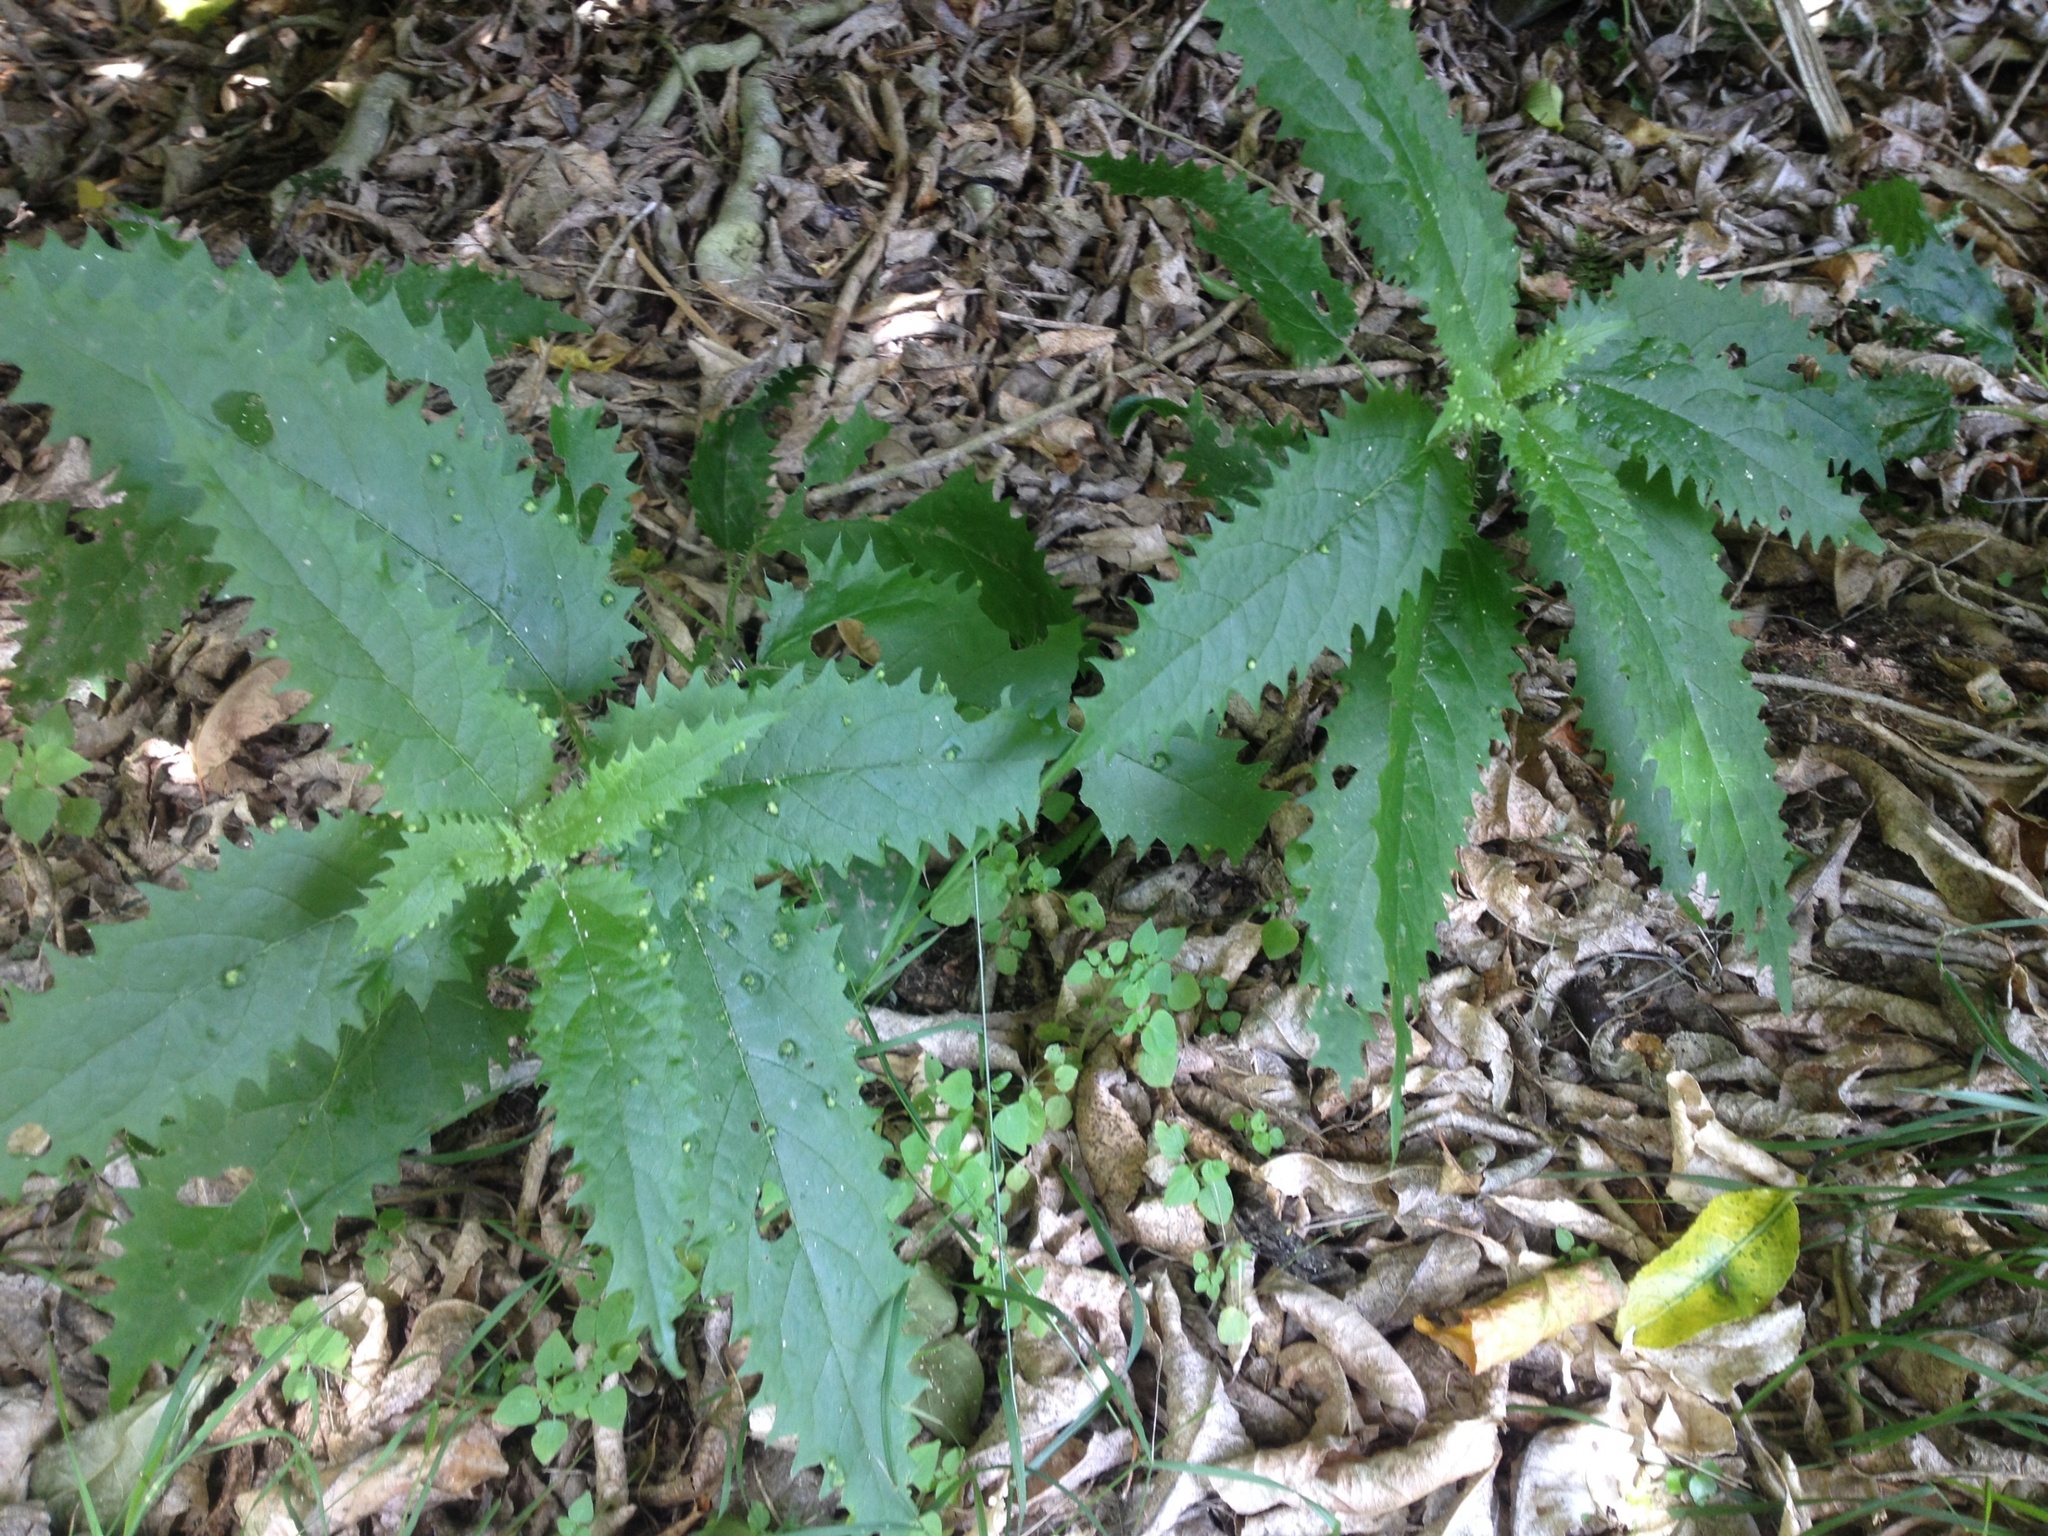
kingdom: Plantae
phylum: Tracheophyta
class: Magnoliopsida
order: Rosales
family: Urticaceae
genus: Urtica
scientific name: Urtica ferox
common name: Tree nettle
